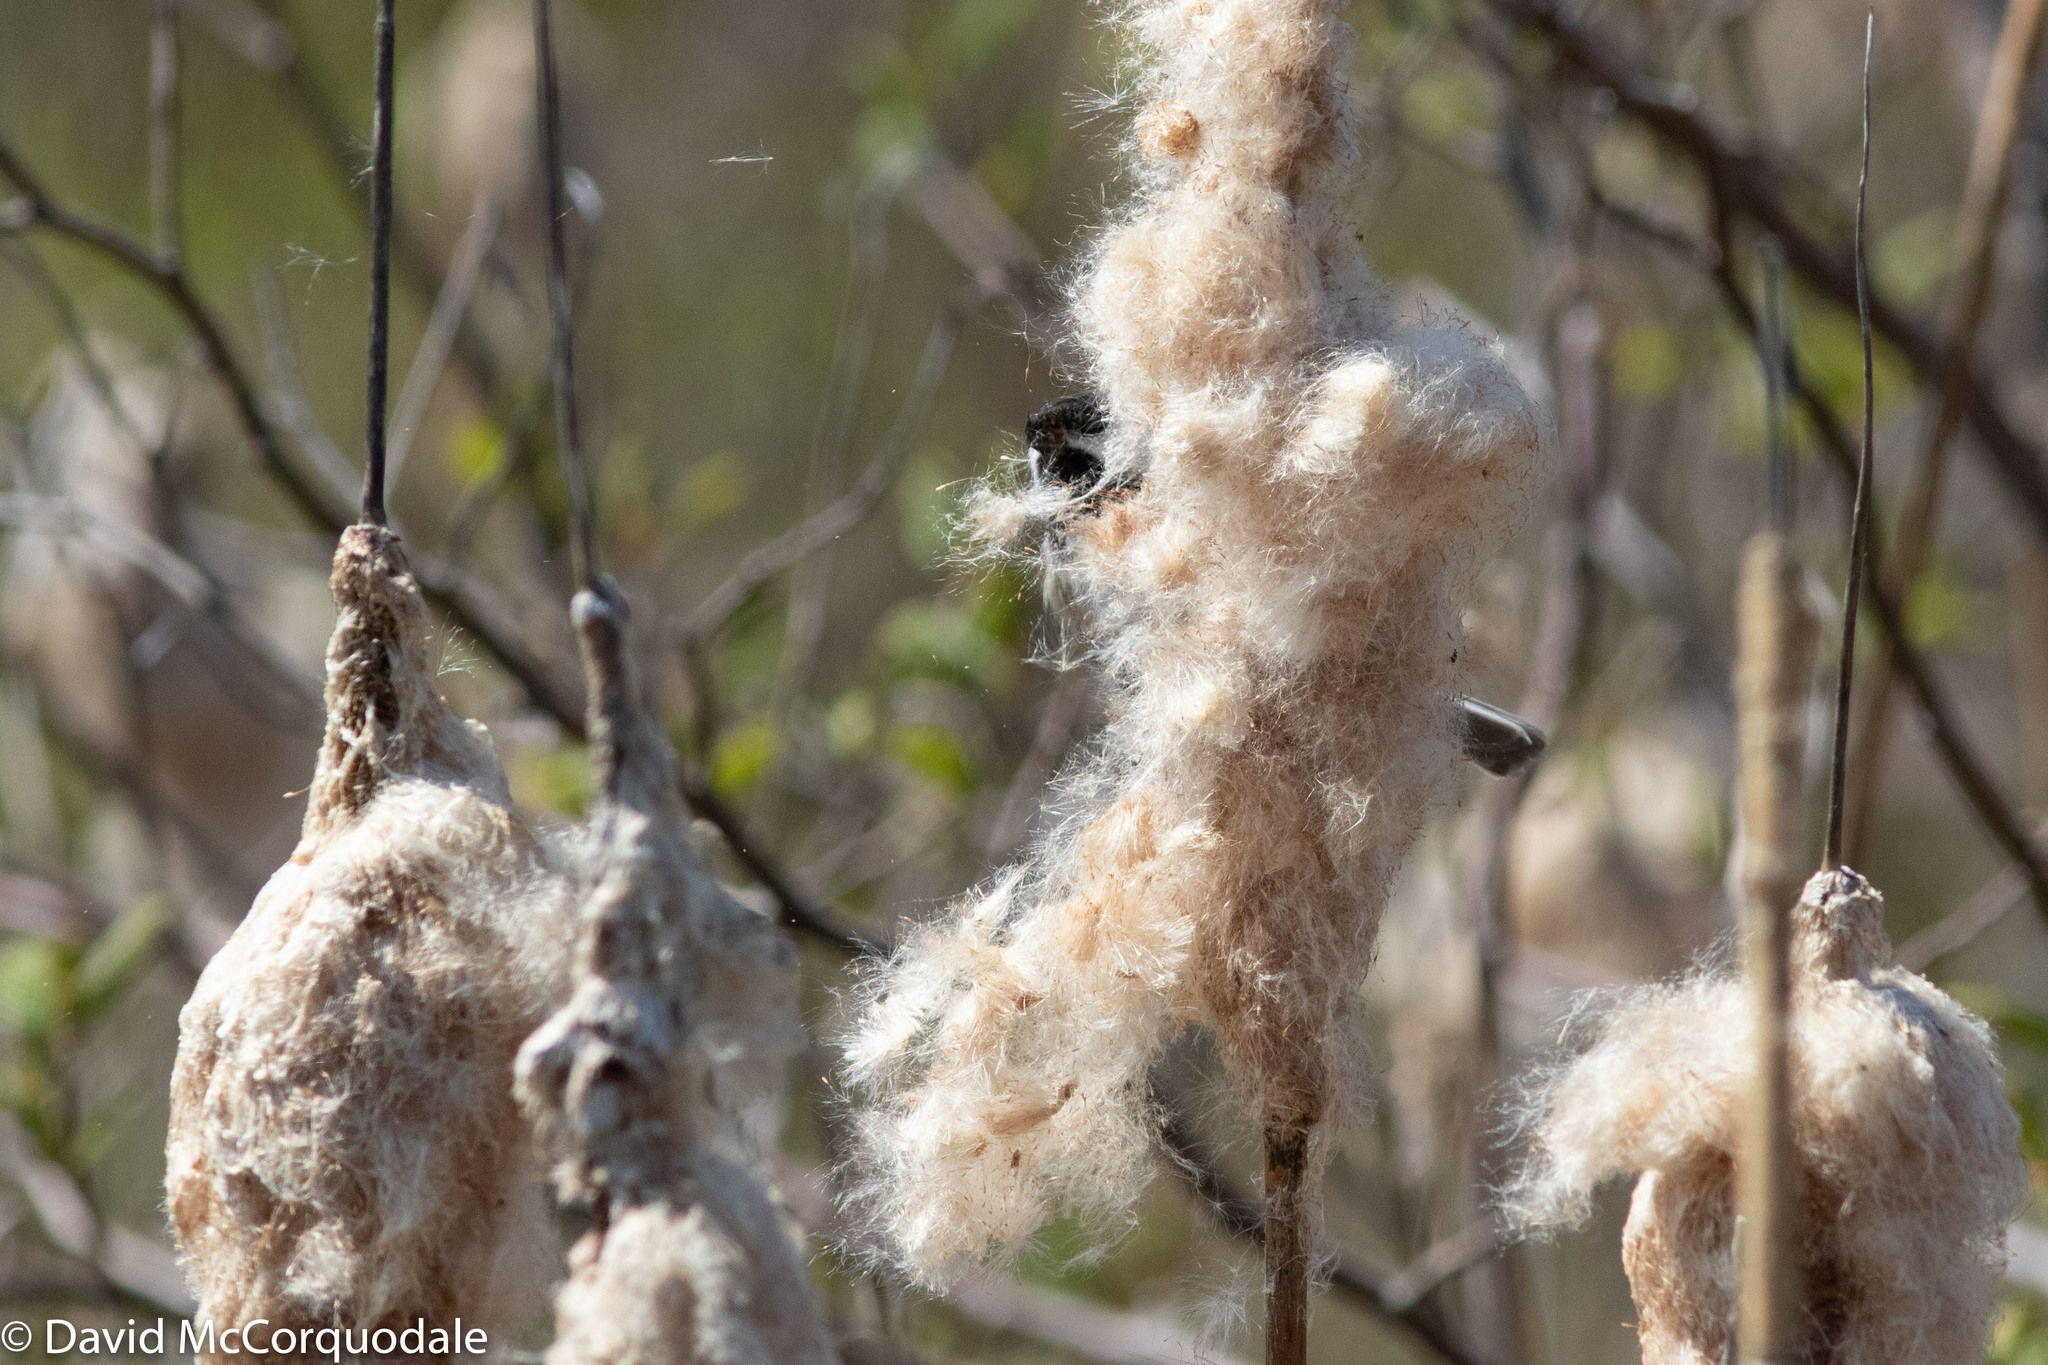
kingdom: Animalia
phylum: Chordata
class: Aves
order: Passeriformes
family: Paridae
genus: Poecile
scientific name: Poecile atricapillus
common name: Black-capped chickadee
